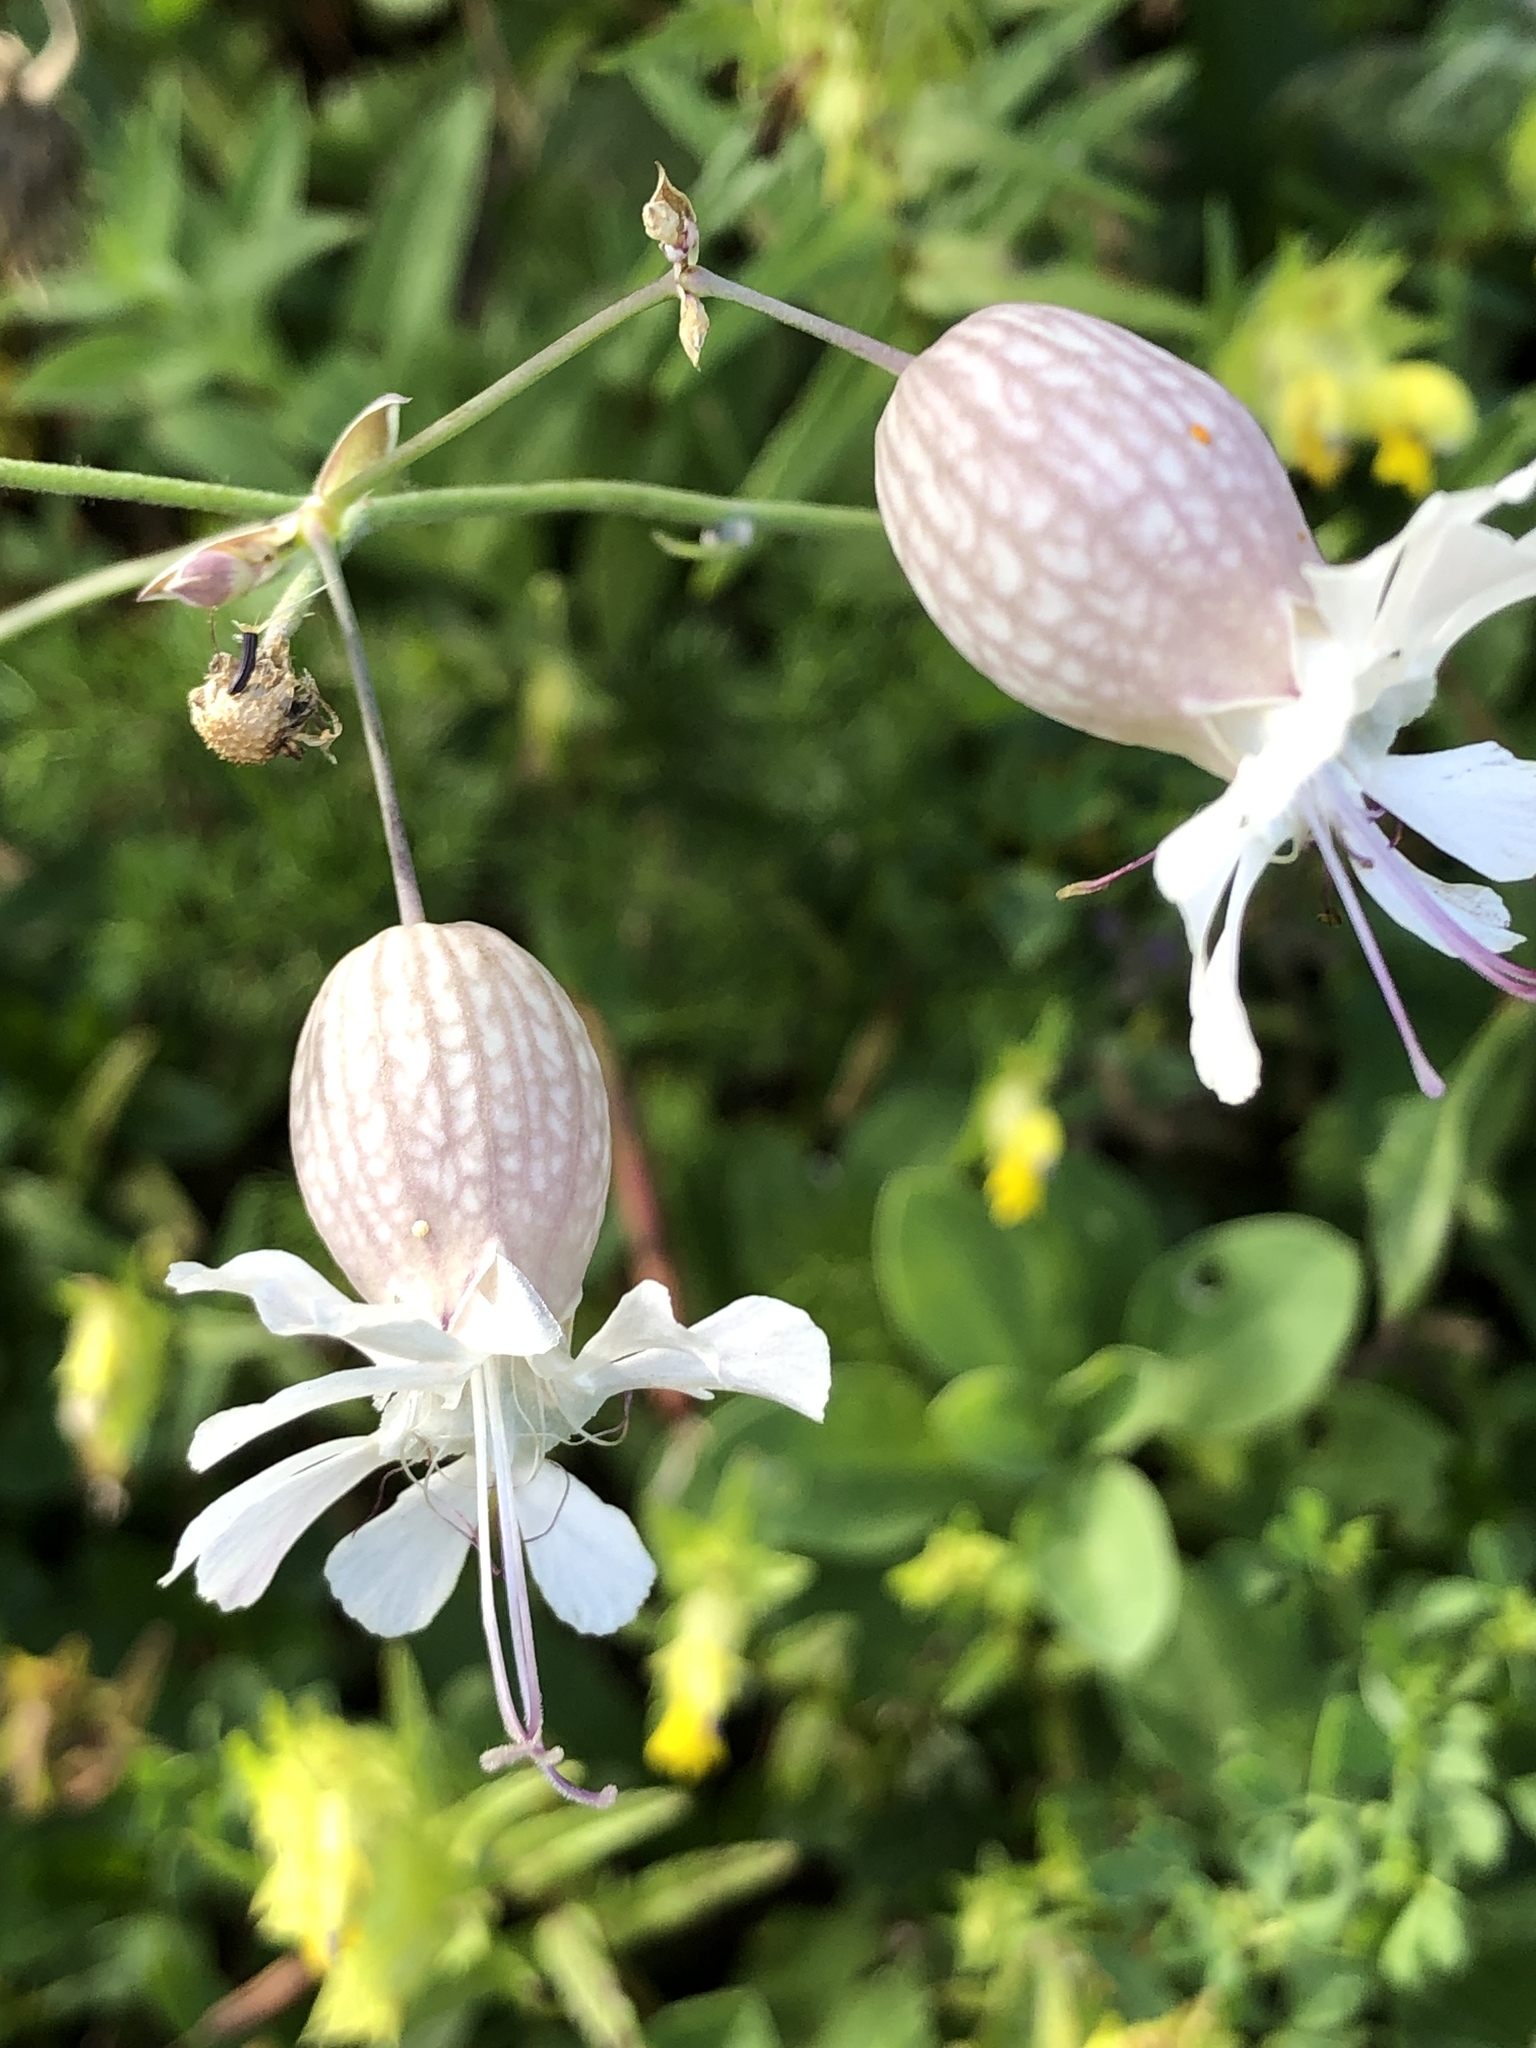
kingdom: Plantae
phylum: Tracheophyta
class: Magnoliopsida
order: Caryophyllales
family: Caryophyllaceae
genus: Silene
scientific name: Silene vulgaris
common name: Bladder campion
